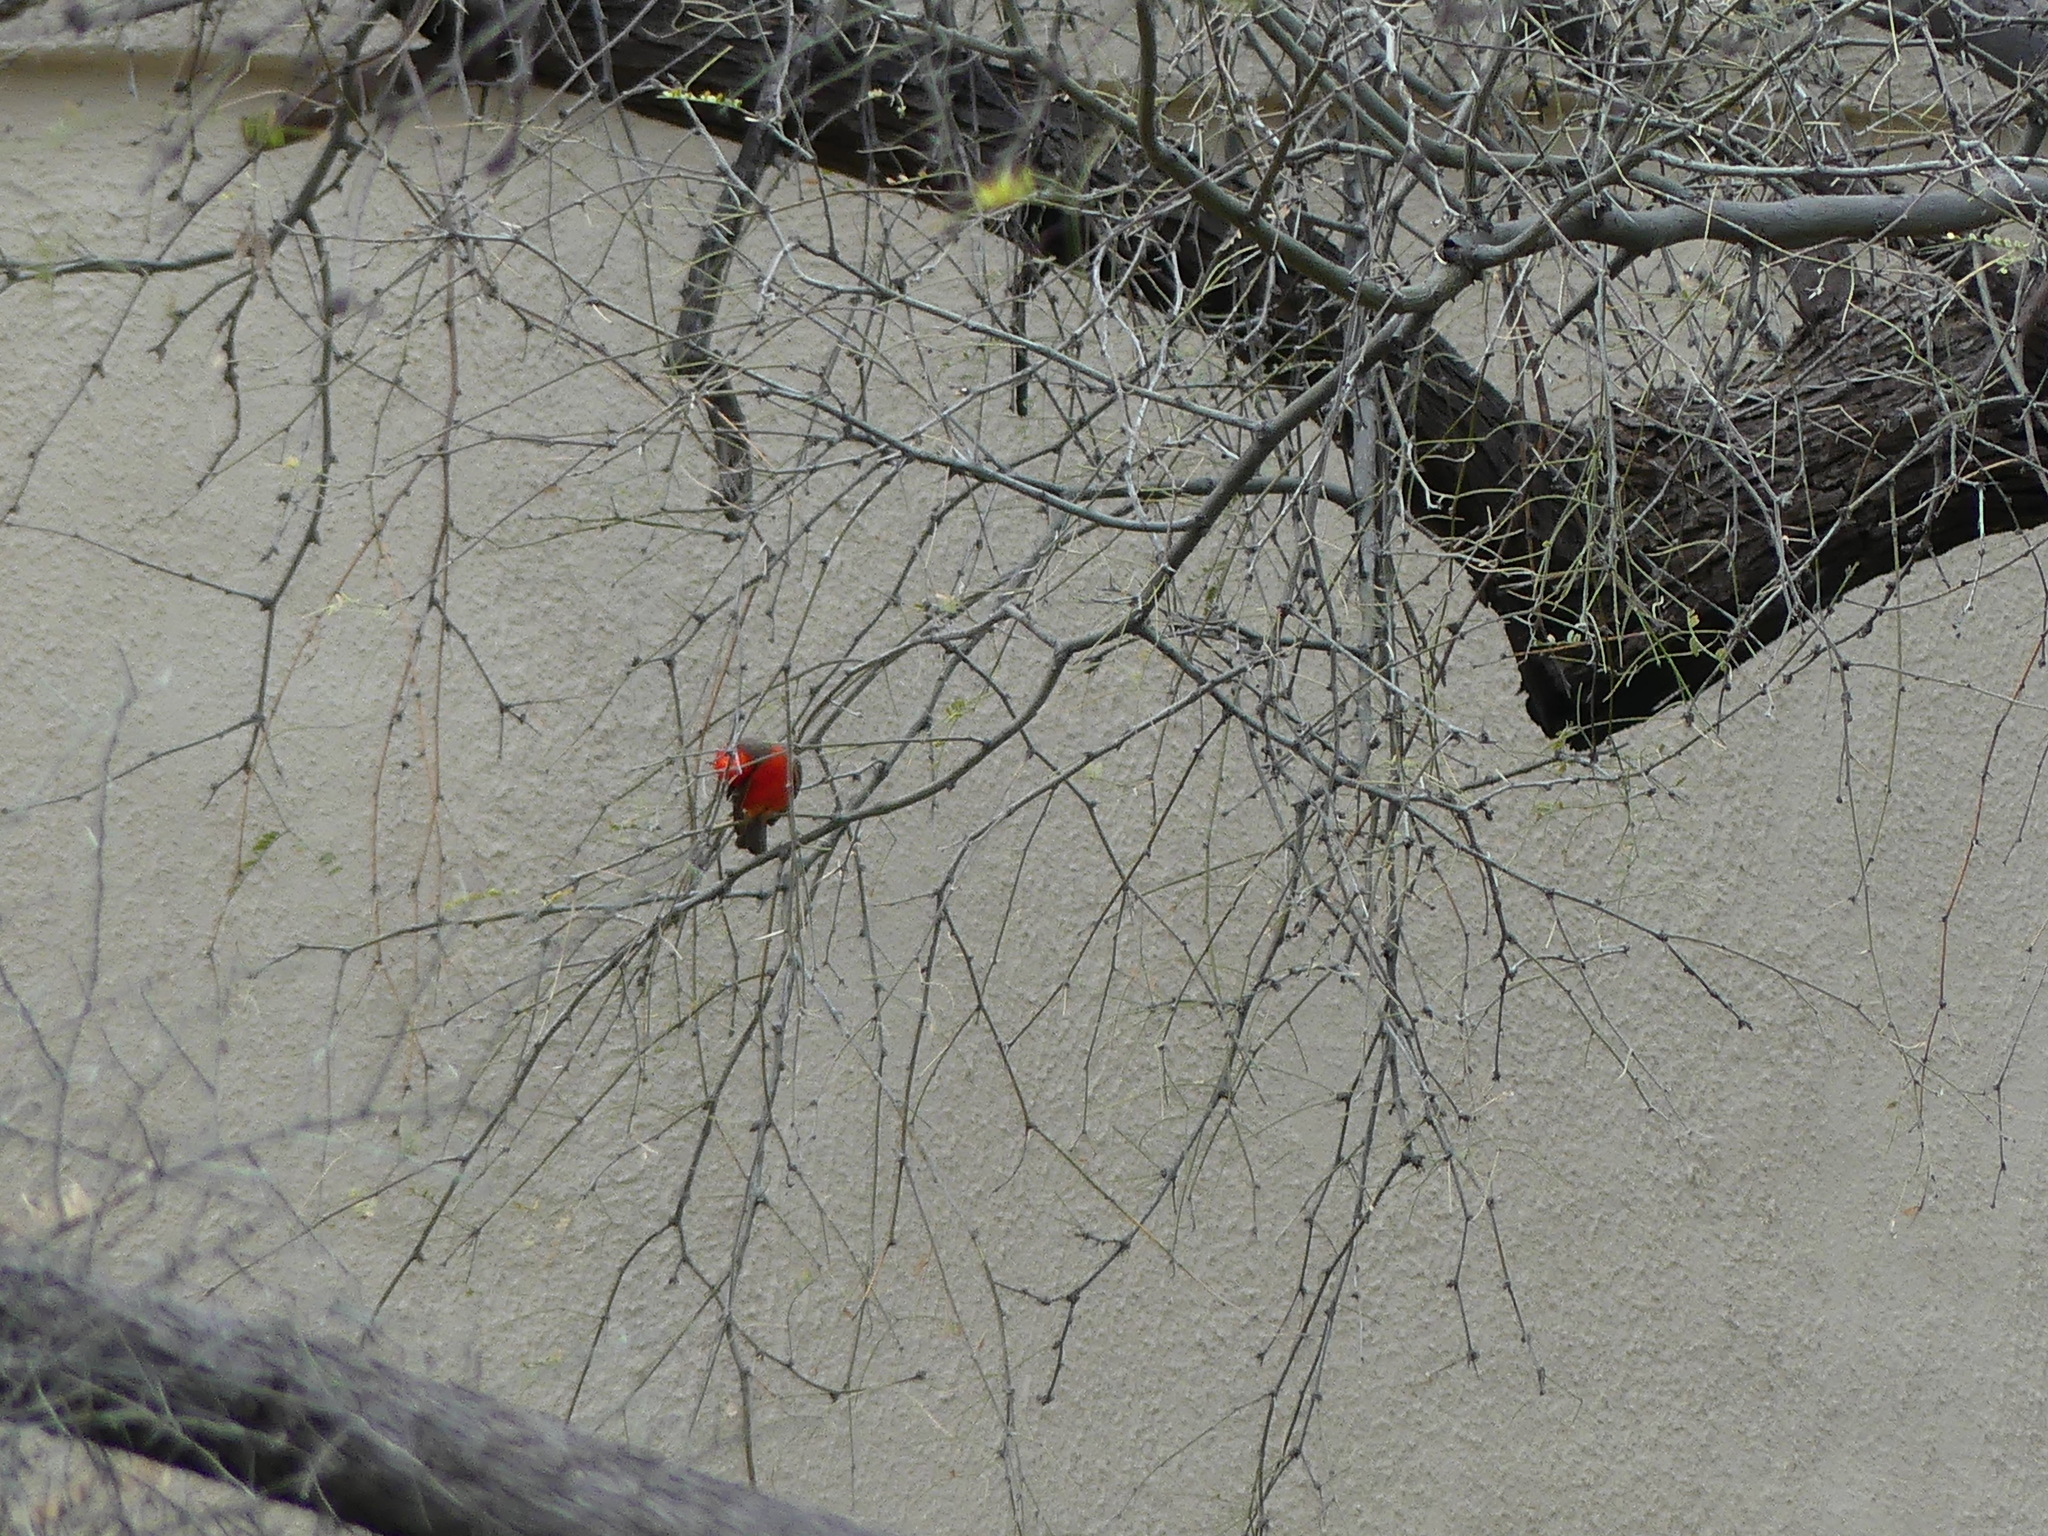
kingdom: Animalia
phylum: Chordata
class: Aves
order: Passeriformes
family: Tyrannidae
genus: Pyrocephalus
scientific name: Pyrocephalus rubinus
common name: Vermilion flycatcher
